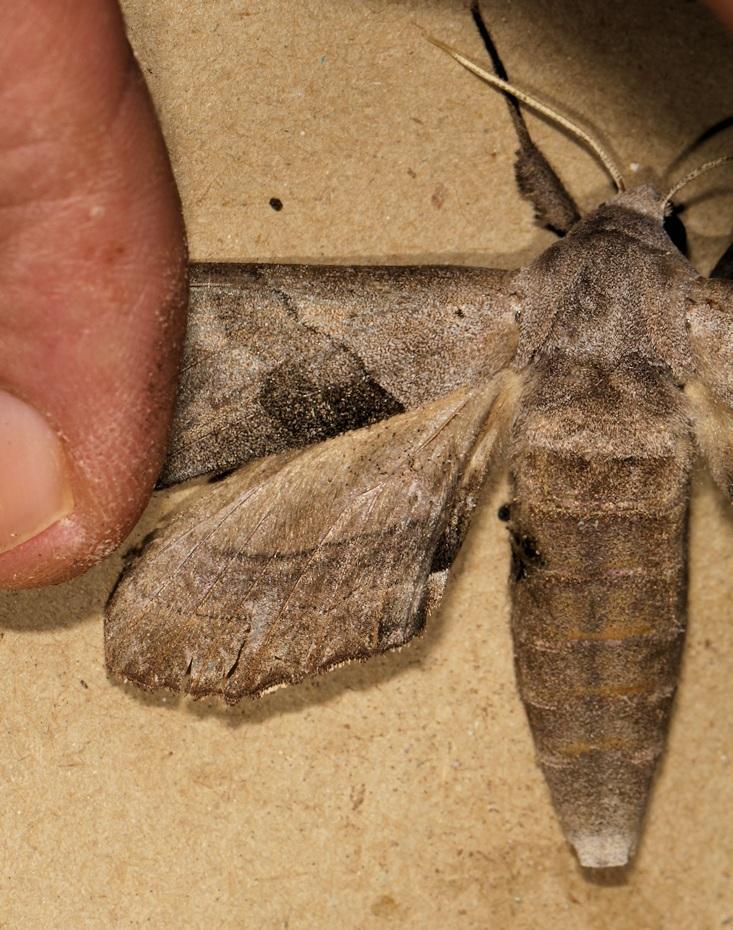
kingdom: Animalia
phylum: Arthropoda
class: Insecta
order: Lepidoptera
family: Sphingidae
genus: Polyptychoides
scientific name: Polyptychoides grayii
